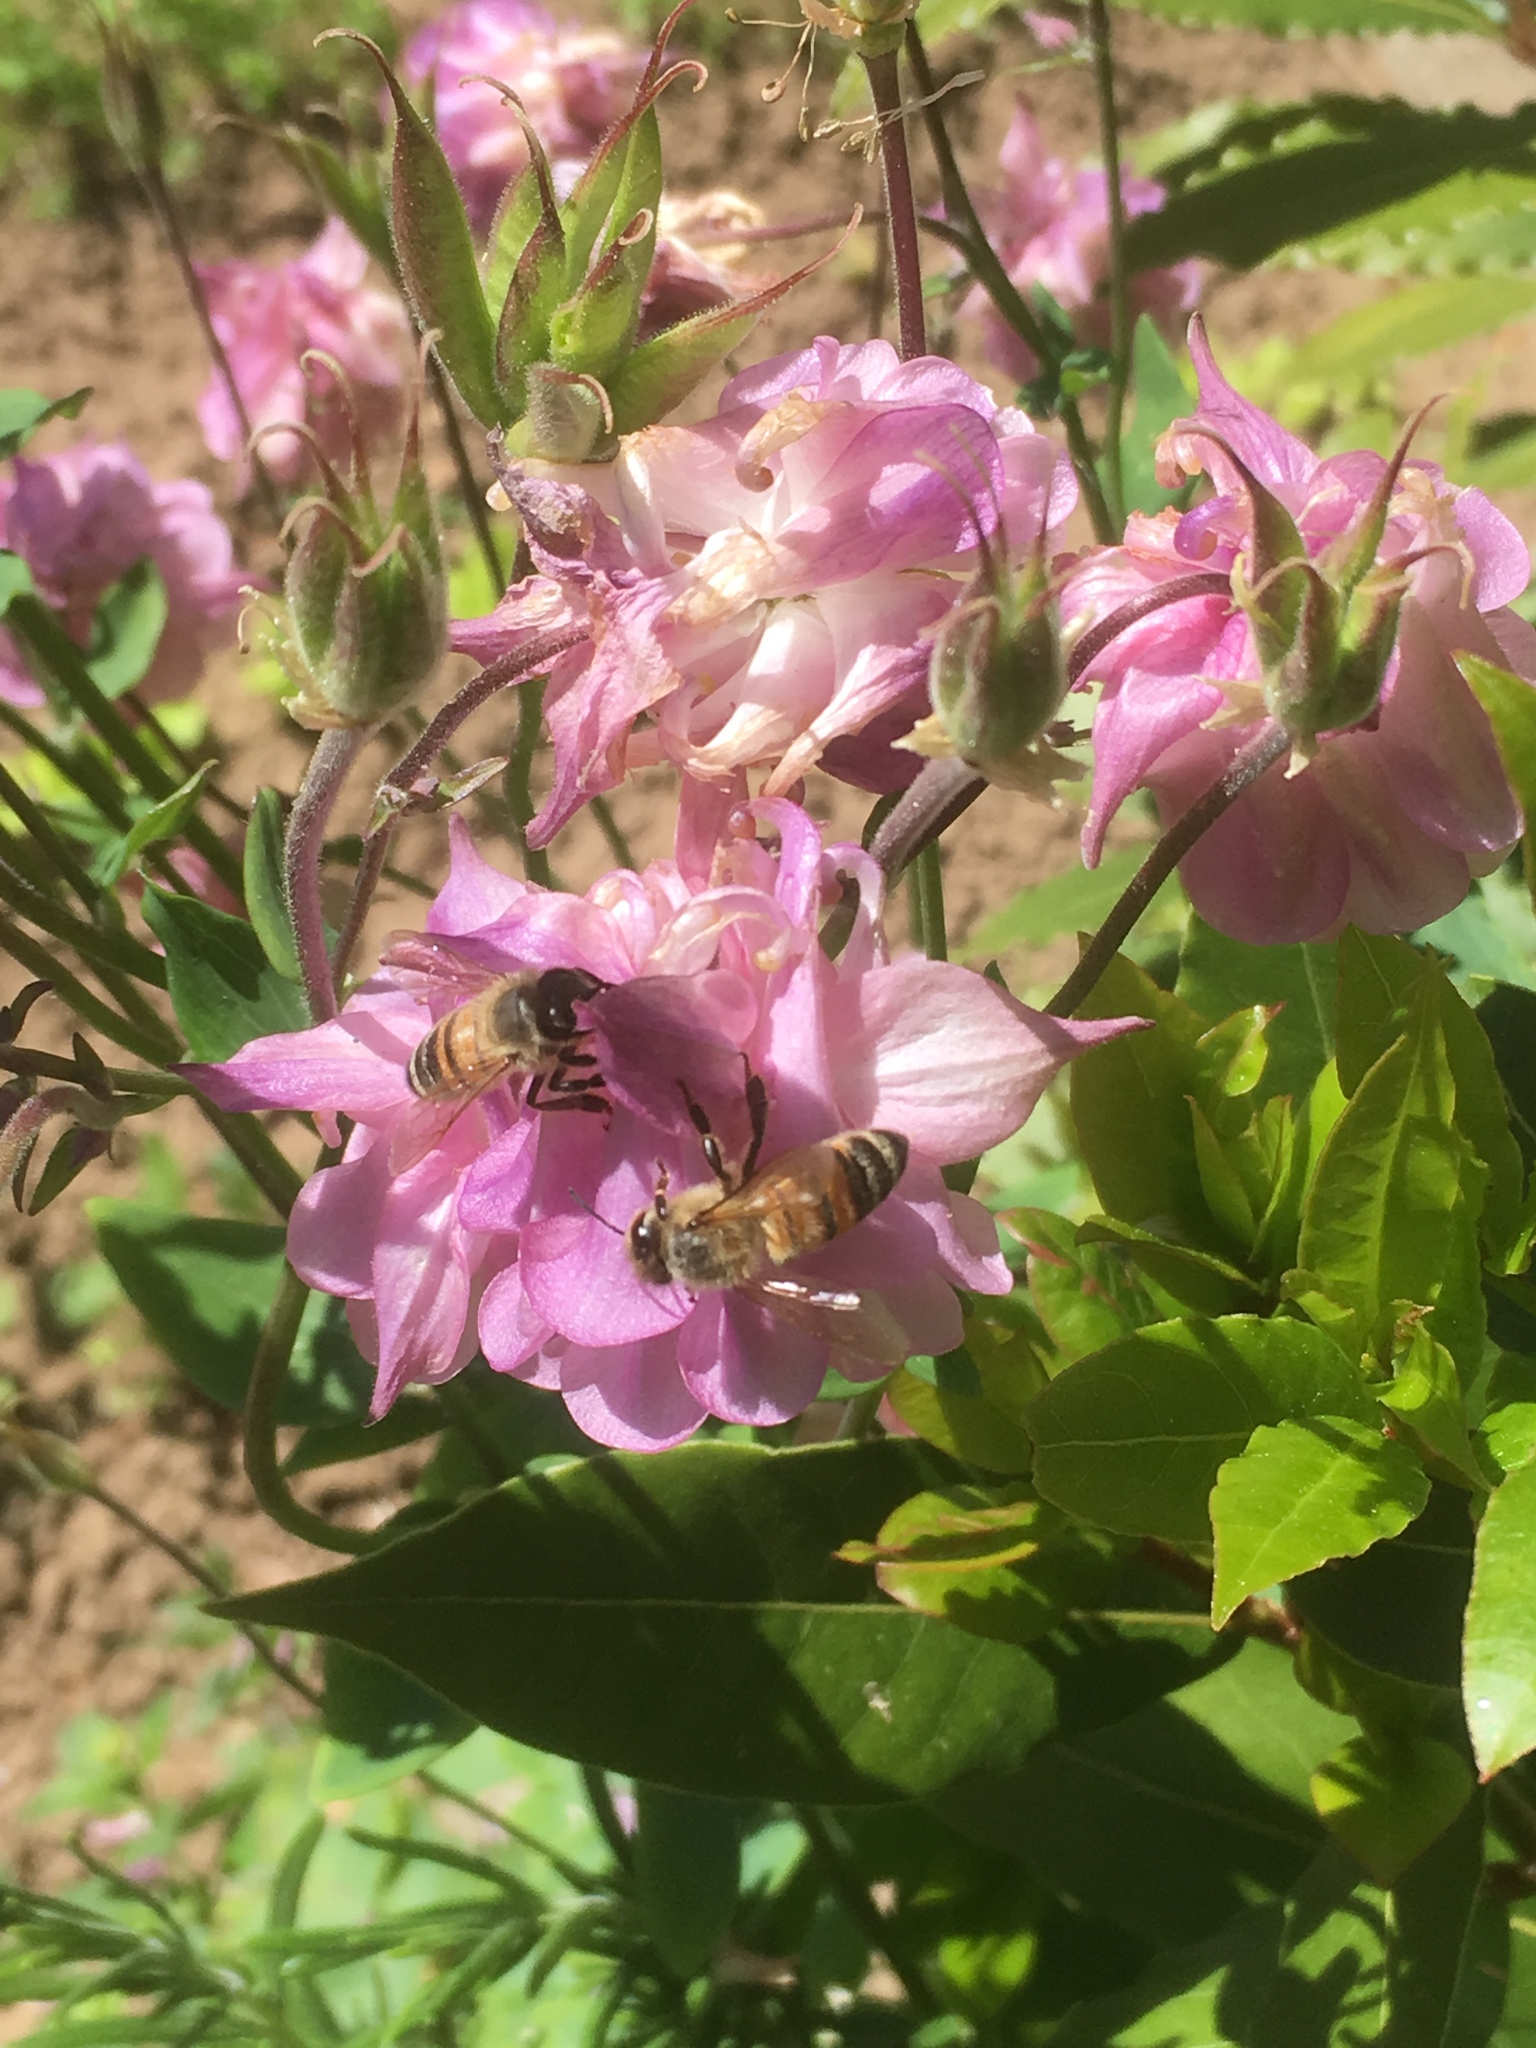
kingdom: Animalia
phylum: Arthropoda
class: Insecta
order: Hymenoptera
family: Apidae
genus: Apis
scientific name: Apis mellifera
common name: Honey bee
